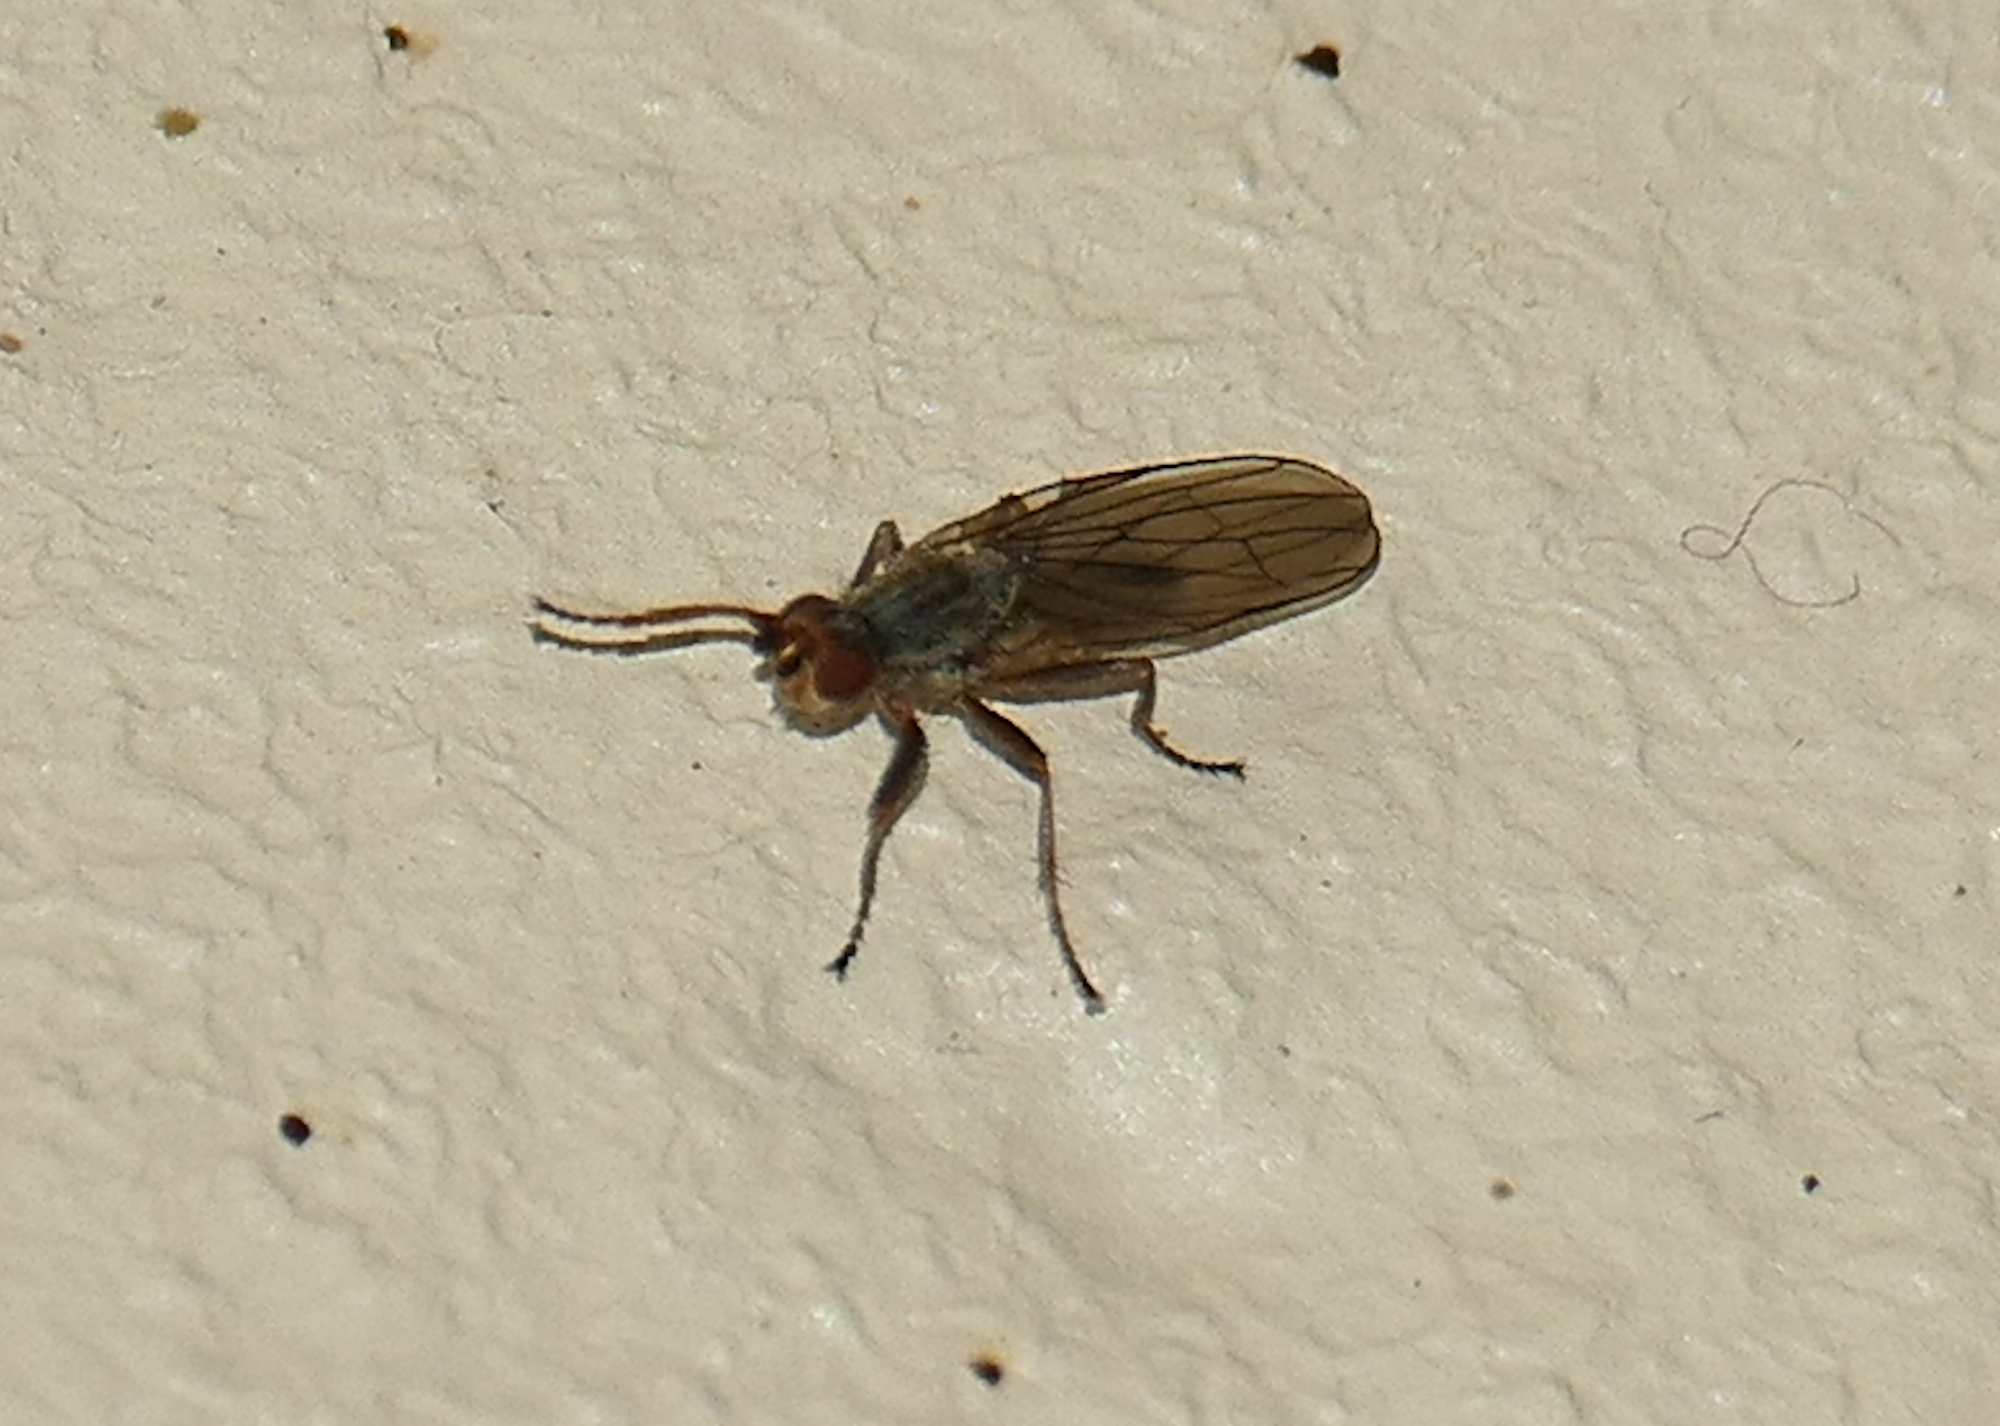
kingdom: Animalia
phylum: Arthropoda
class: Insecta
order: Diptera
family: Heleomyzidae
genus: Orbellia
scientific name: Orbellia petersoni
